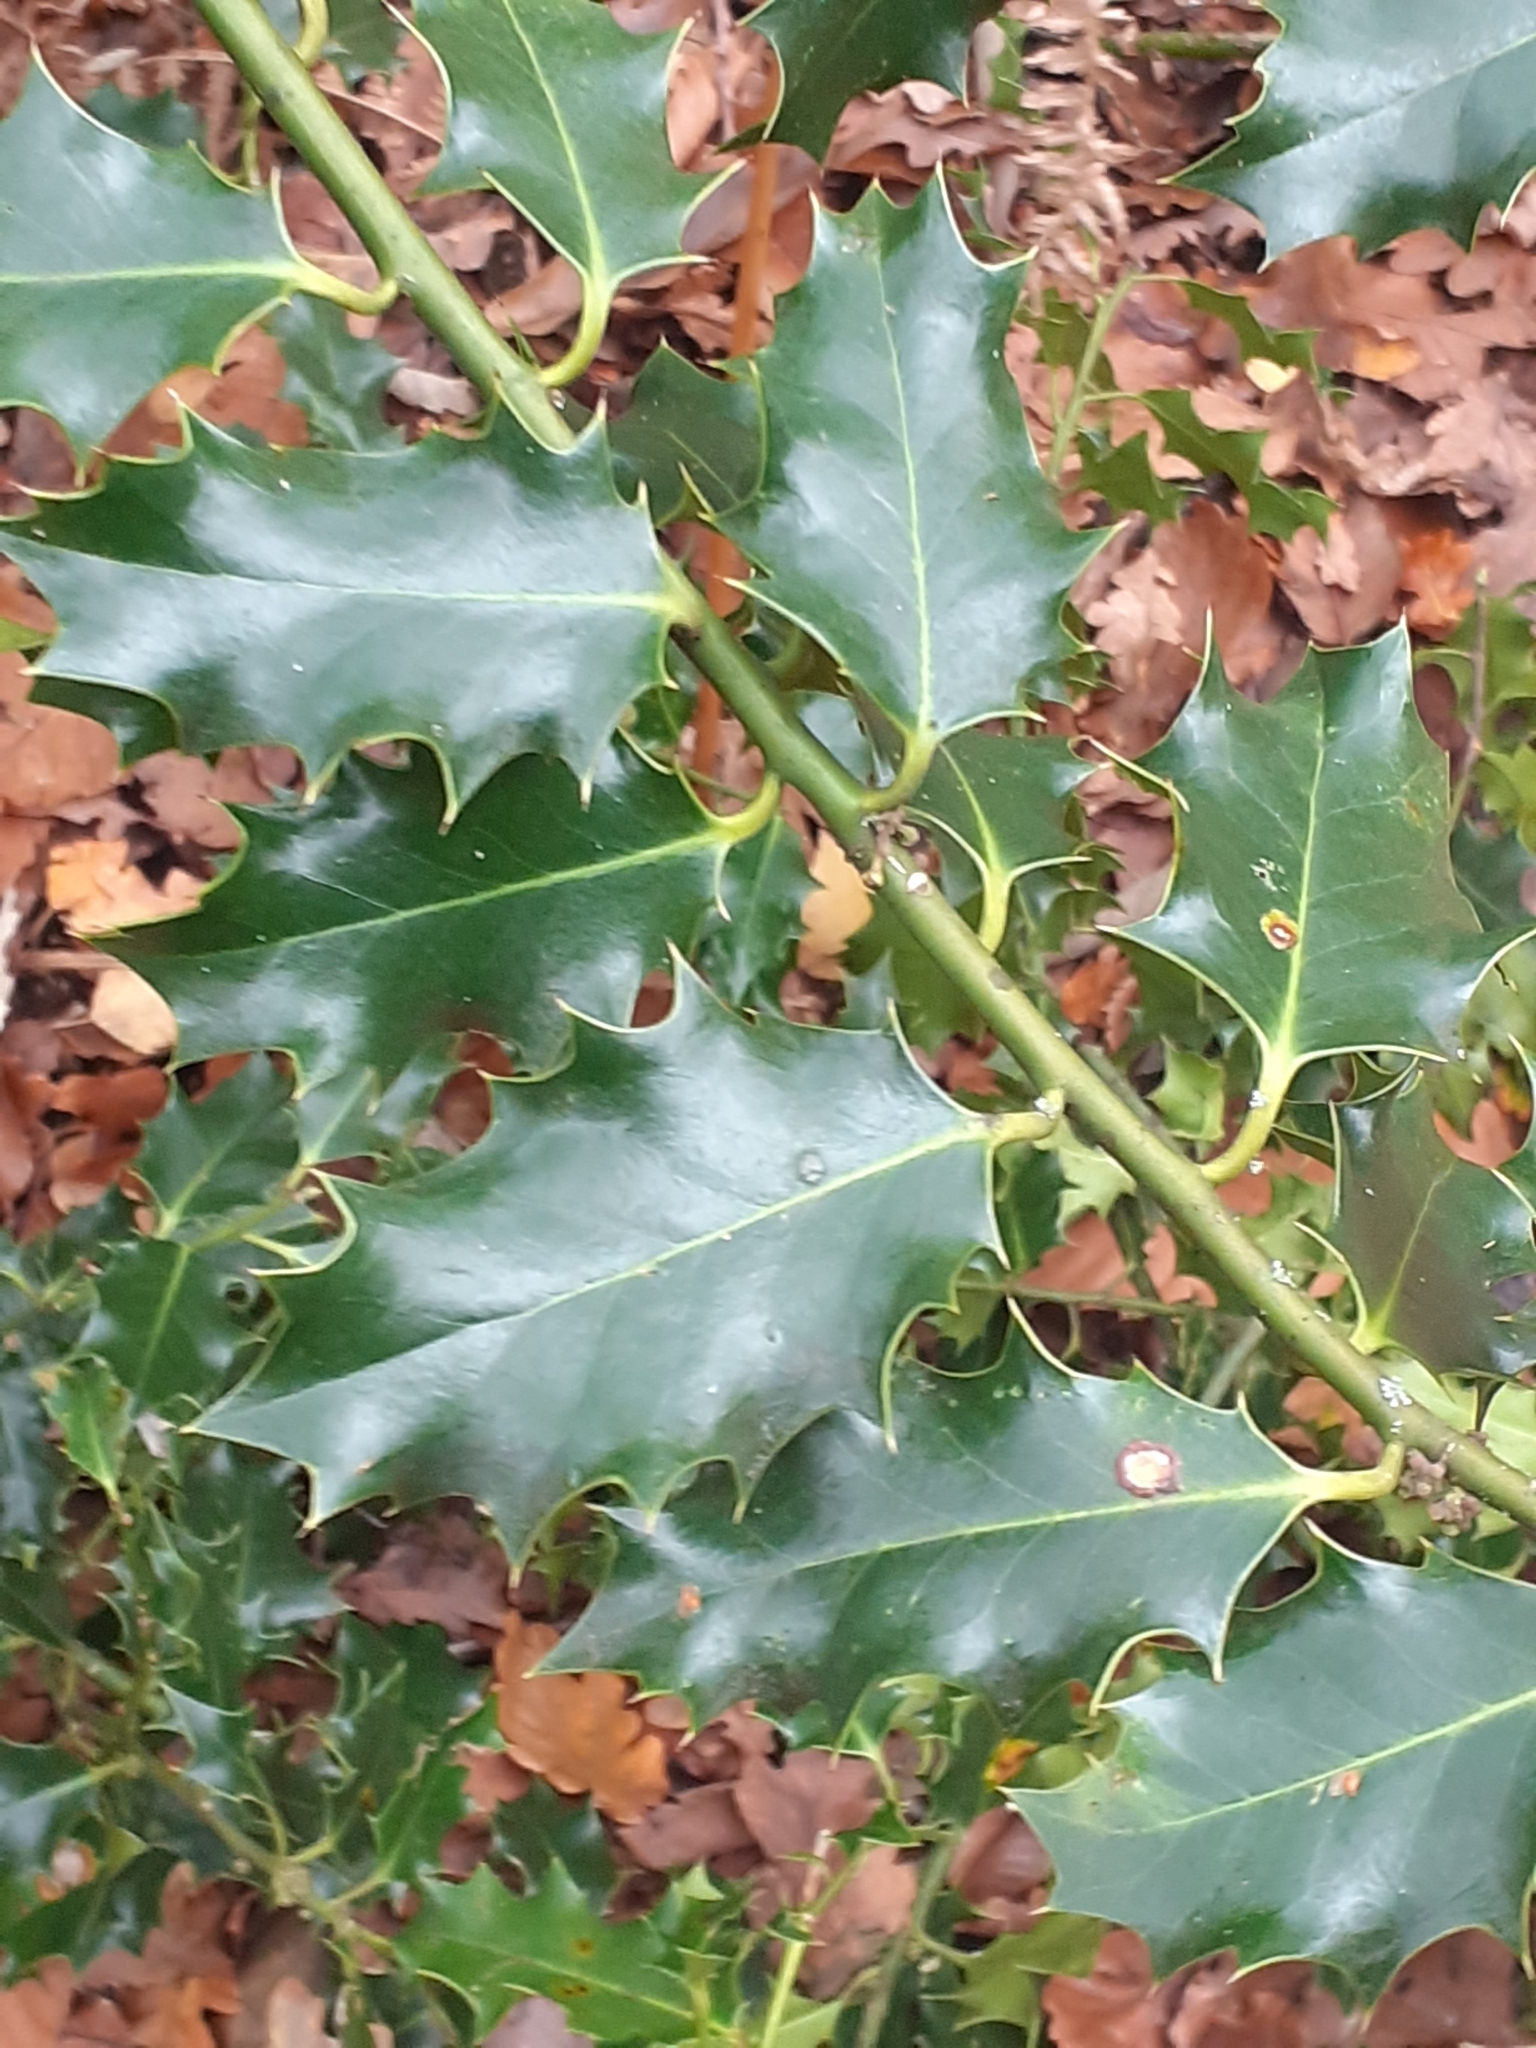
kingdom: Plantae
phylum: Tracheophyta
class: Magnoliopsida
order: Aquifoliales
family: Aquifoliaceae
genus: Ilex
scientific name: Ilex aquifolium
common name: English holly
